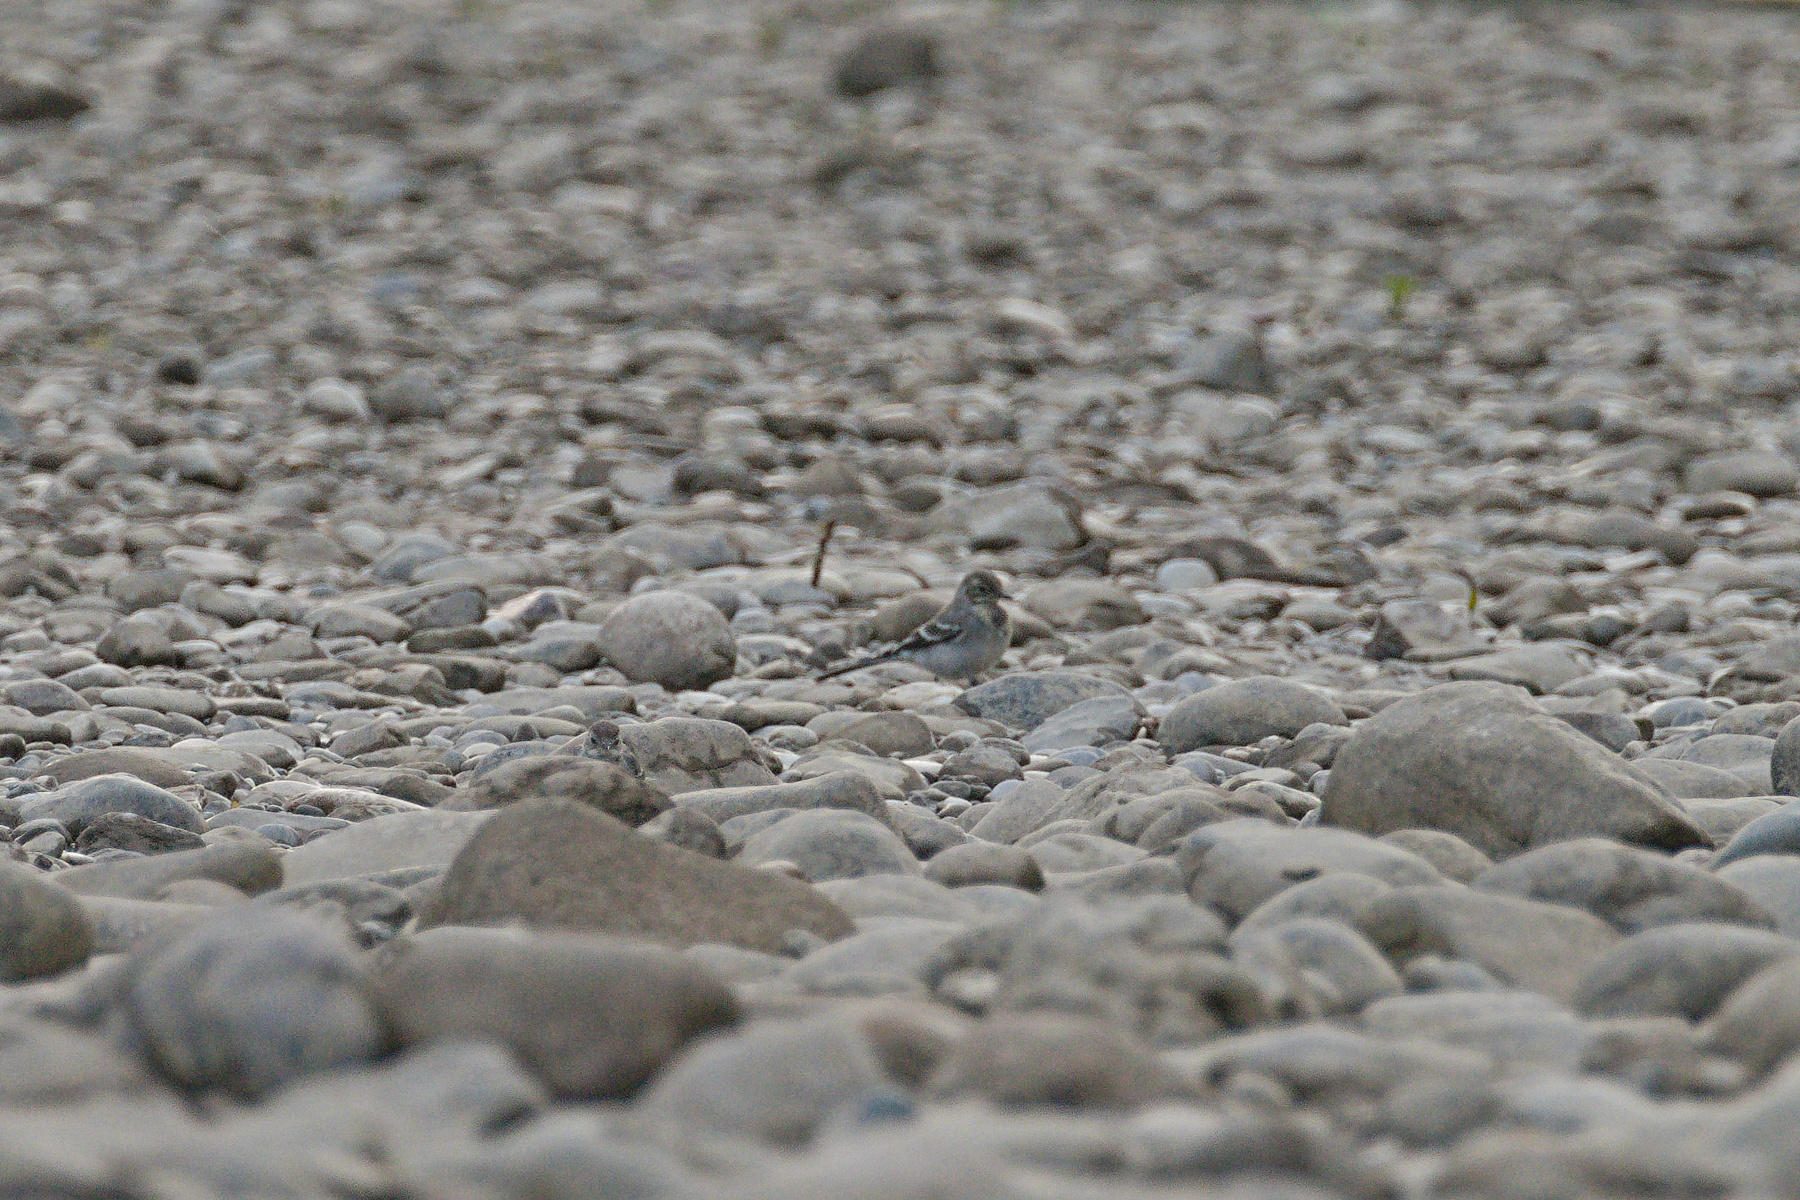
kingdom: Animalia
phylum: Chordata
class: Aves
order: Passeriformes
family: Motacillidae
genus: Motacilla
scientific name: Motacilla alba
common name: White wagtail
